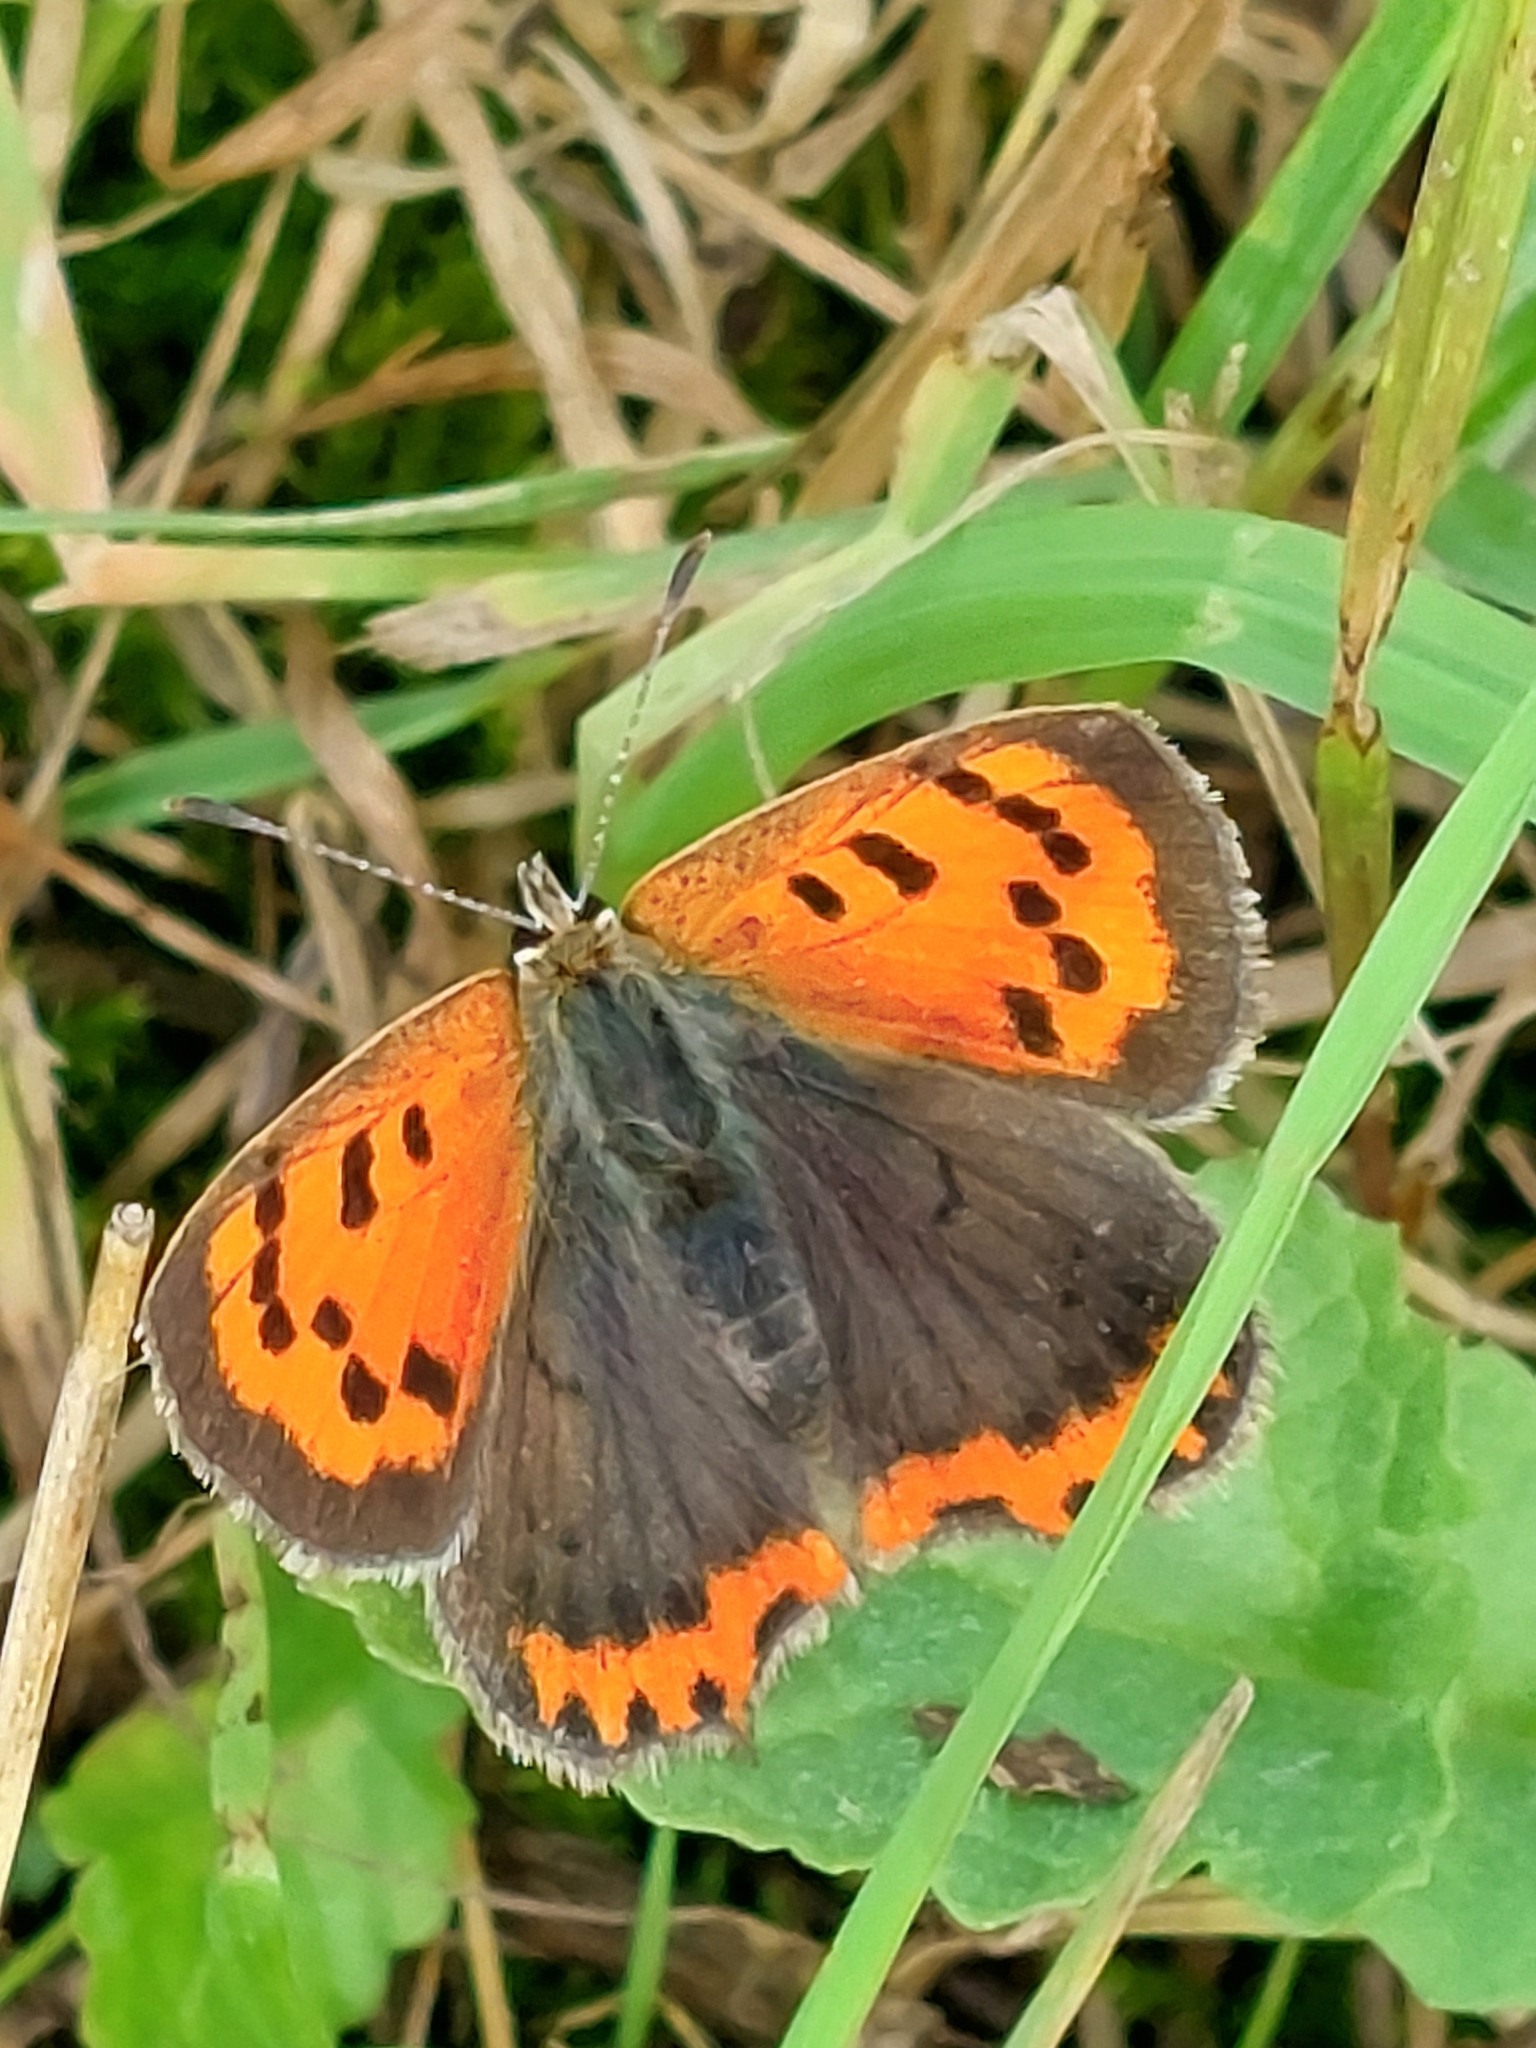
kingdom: Animalia
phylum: Arthropoda
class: Insecta
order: Lepidoptera
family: Lycaenidae
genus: Lycaena
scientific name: Lycaena phlaeas
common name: Small copper
